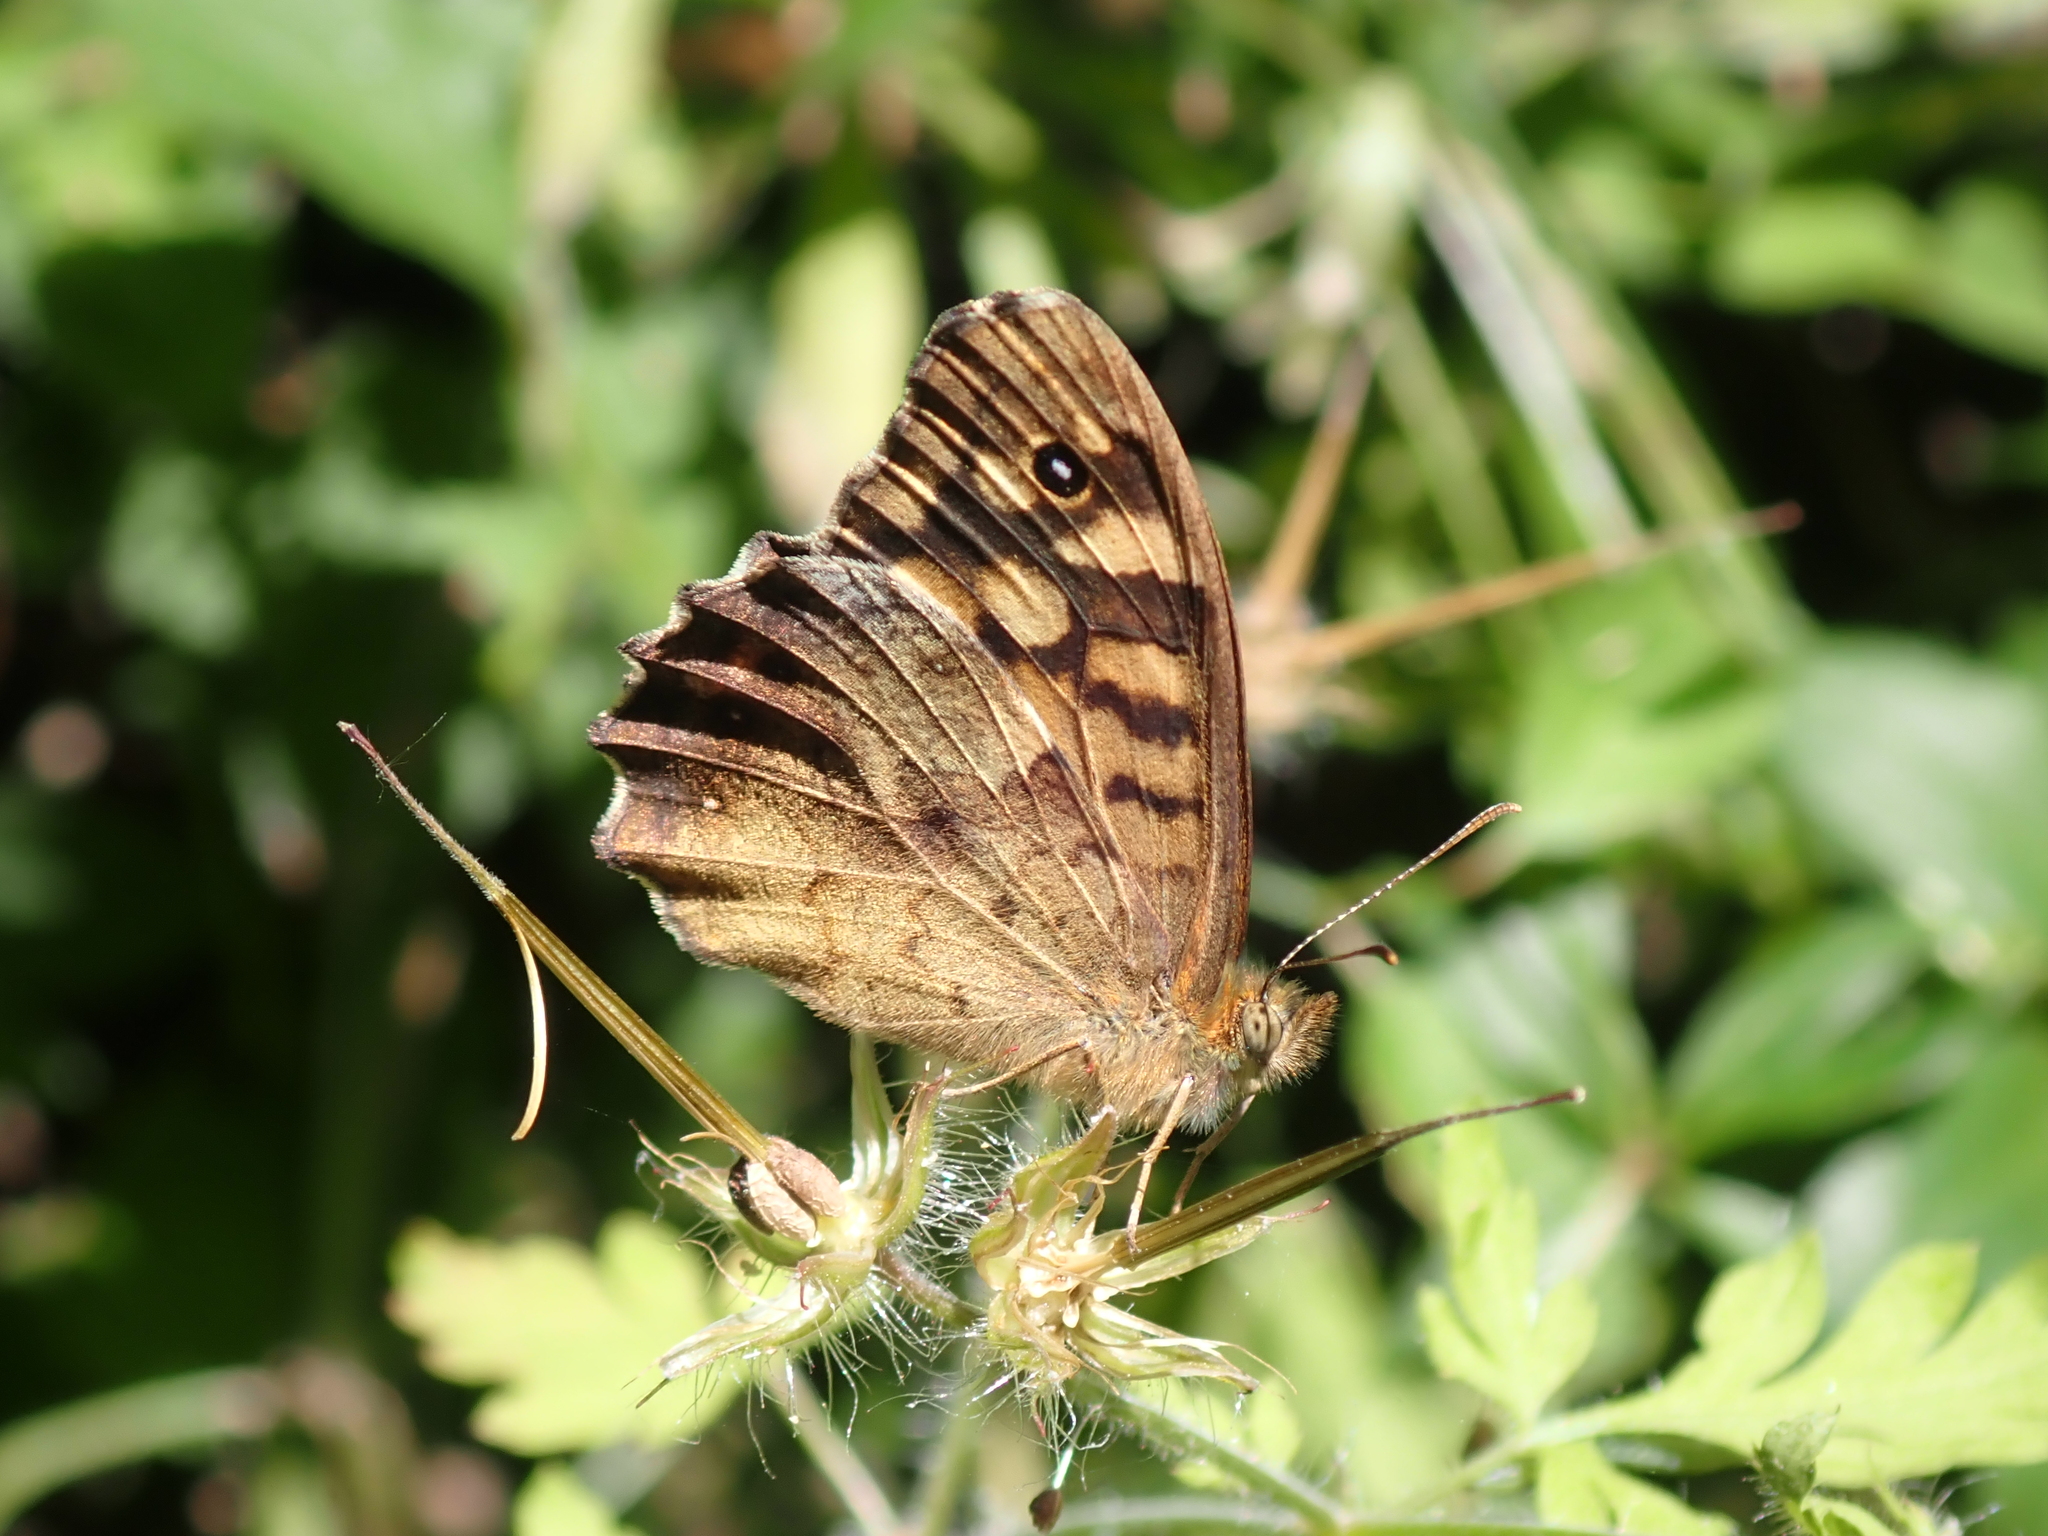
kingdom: Animalia
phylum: Arthropoda
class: Insecta
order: Lepidoptera
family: Nymphalidae
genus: Pararge
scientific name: Pararge aegeria
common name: Speckled wood
